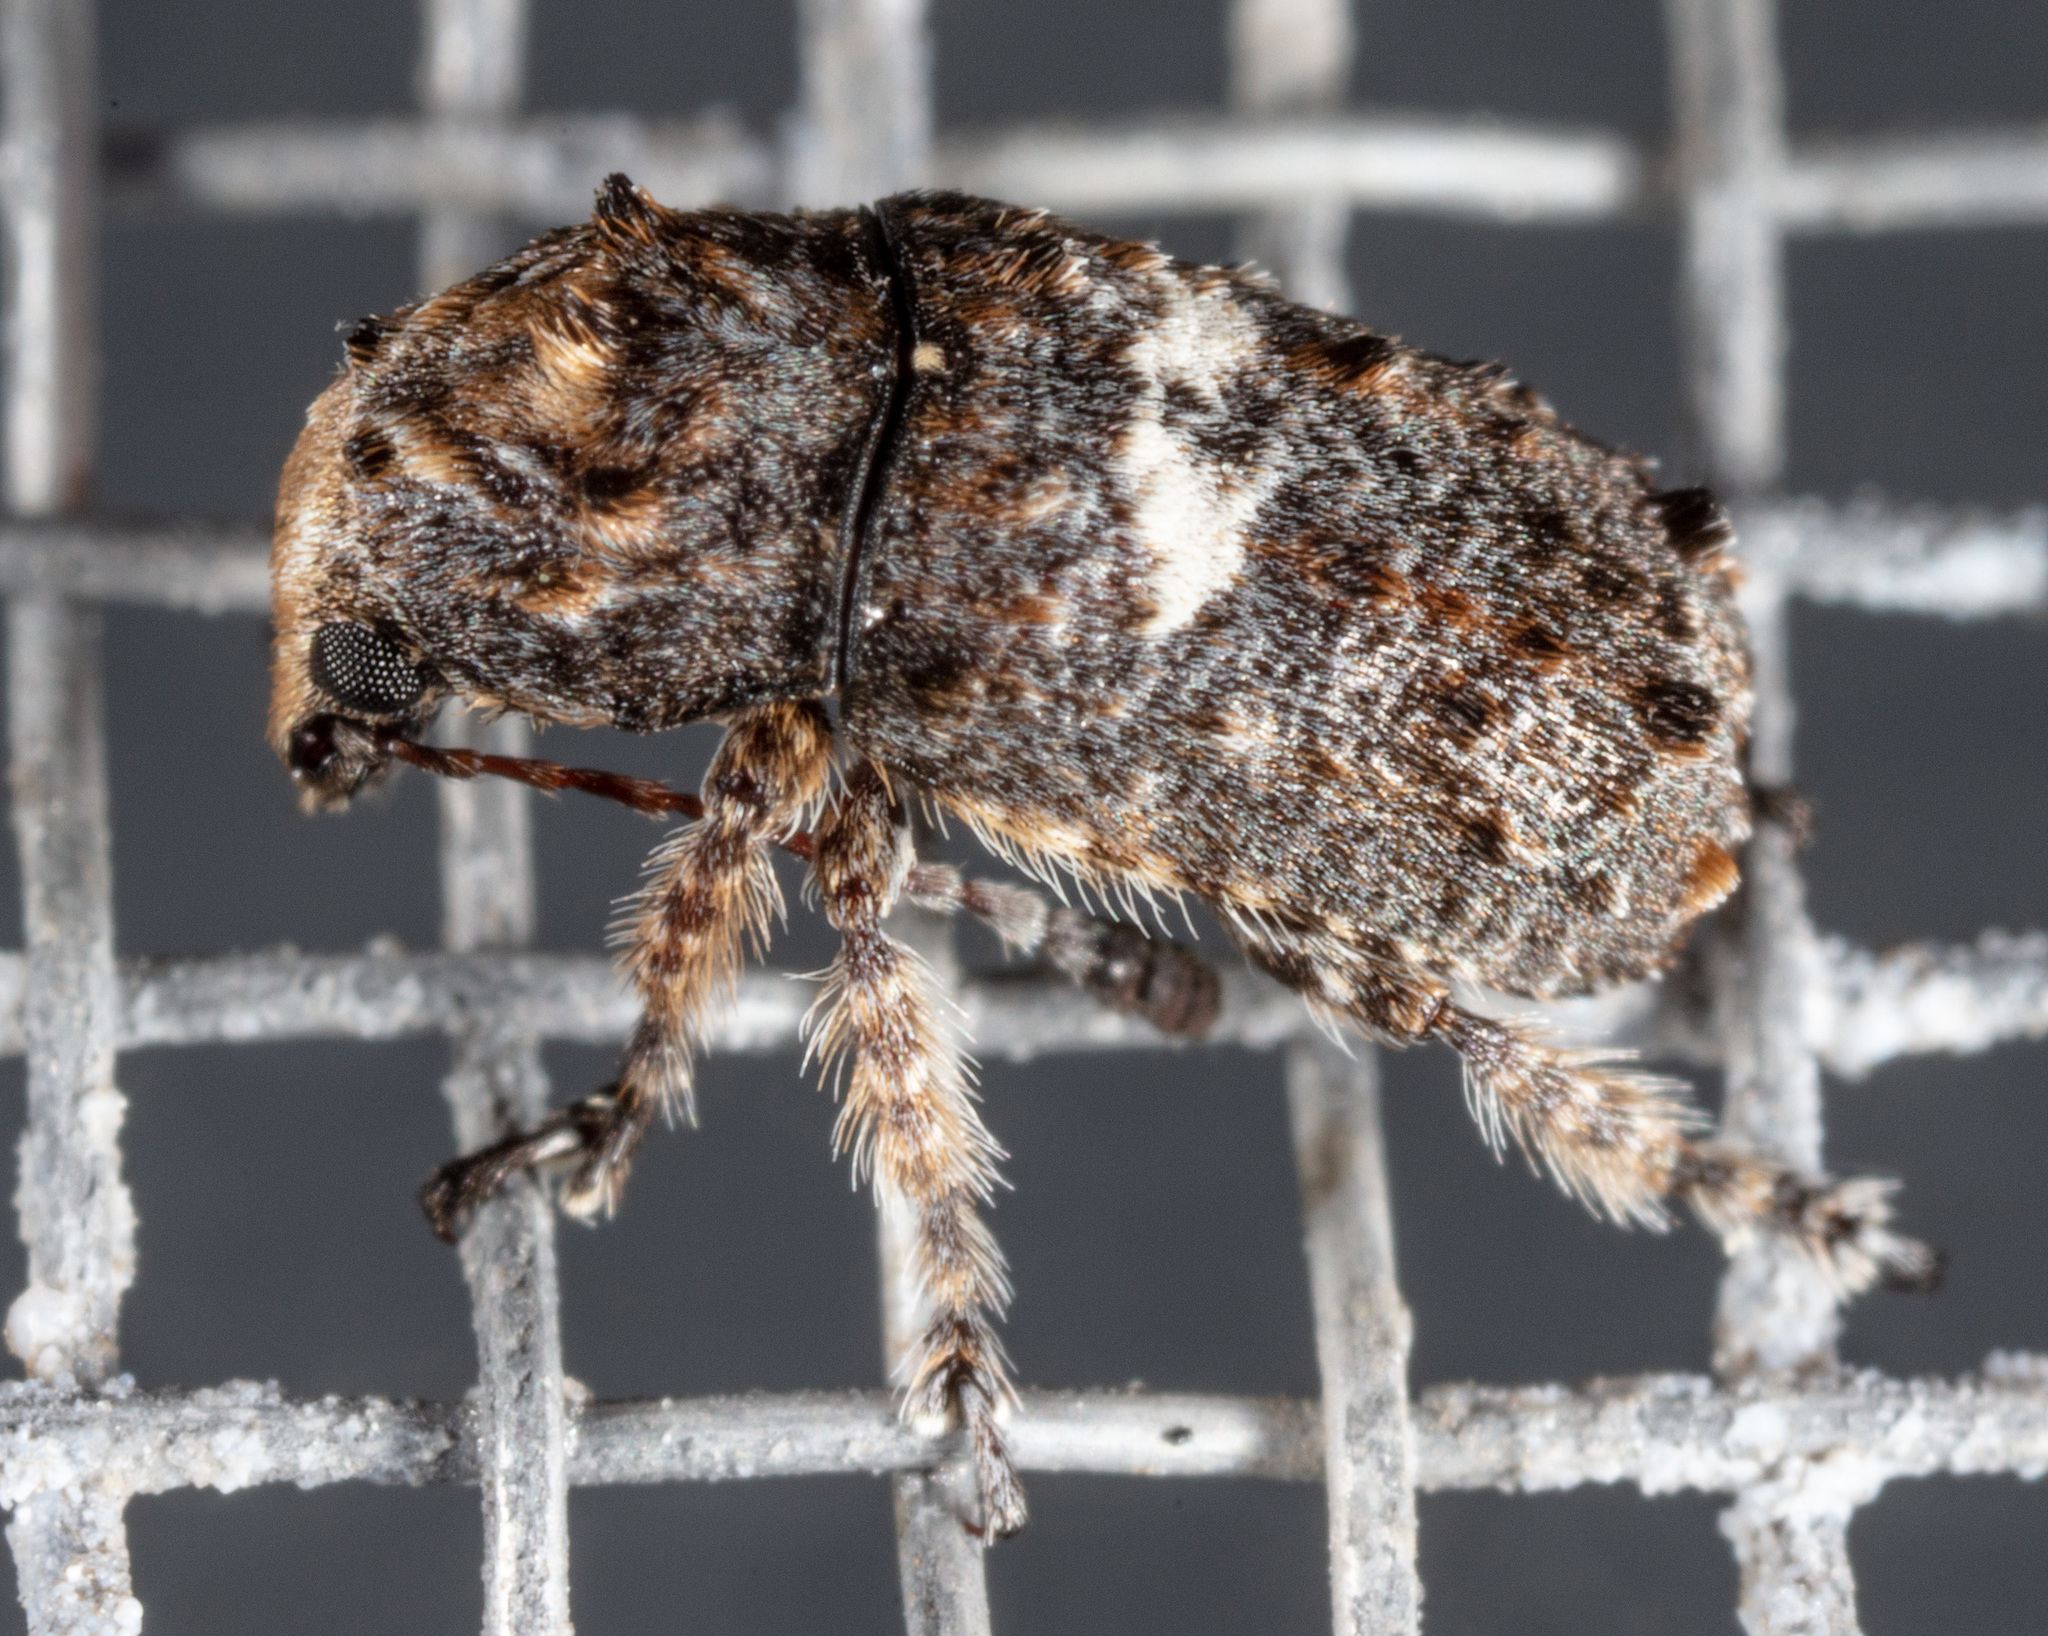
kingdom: Animalia
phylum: Arthropoda
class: Insecta
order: Coleoptera
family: Anthribidae
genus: Toxonotus
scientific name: Toxonotus cornutus
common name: Fungus weevil
